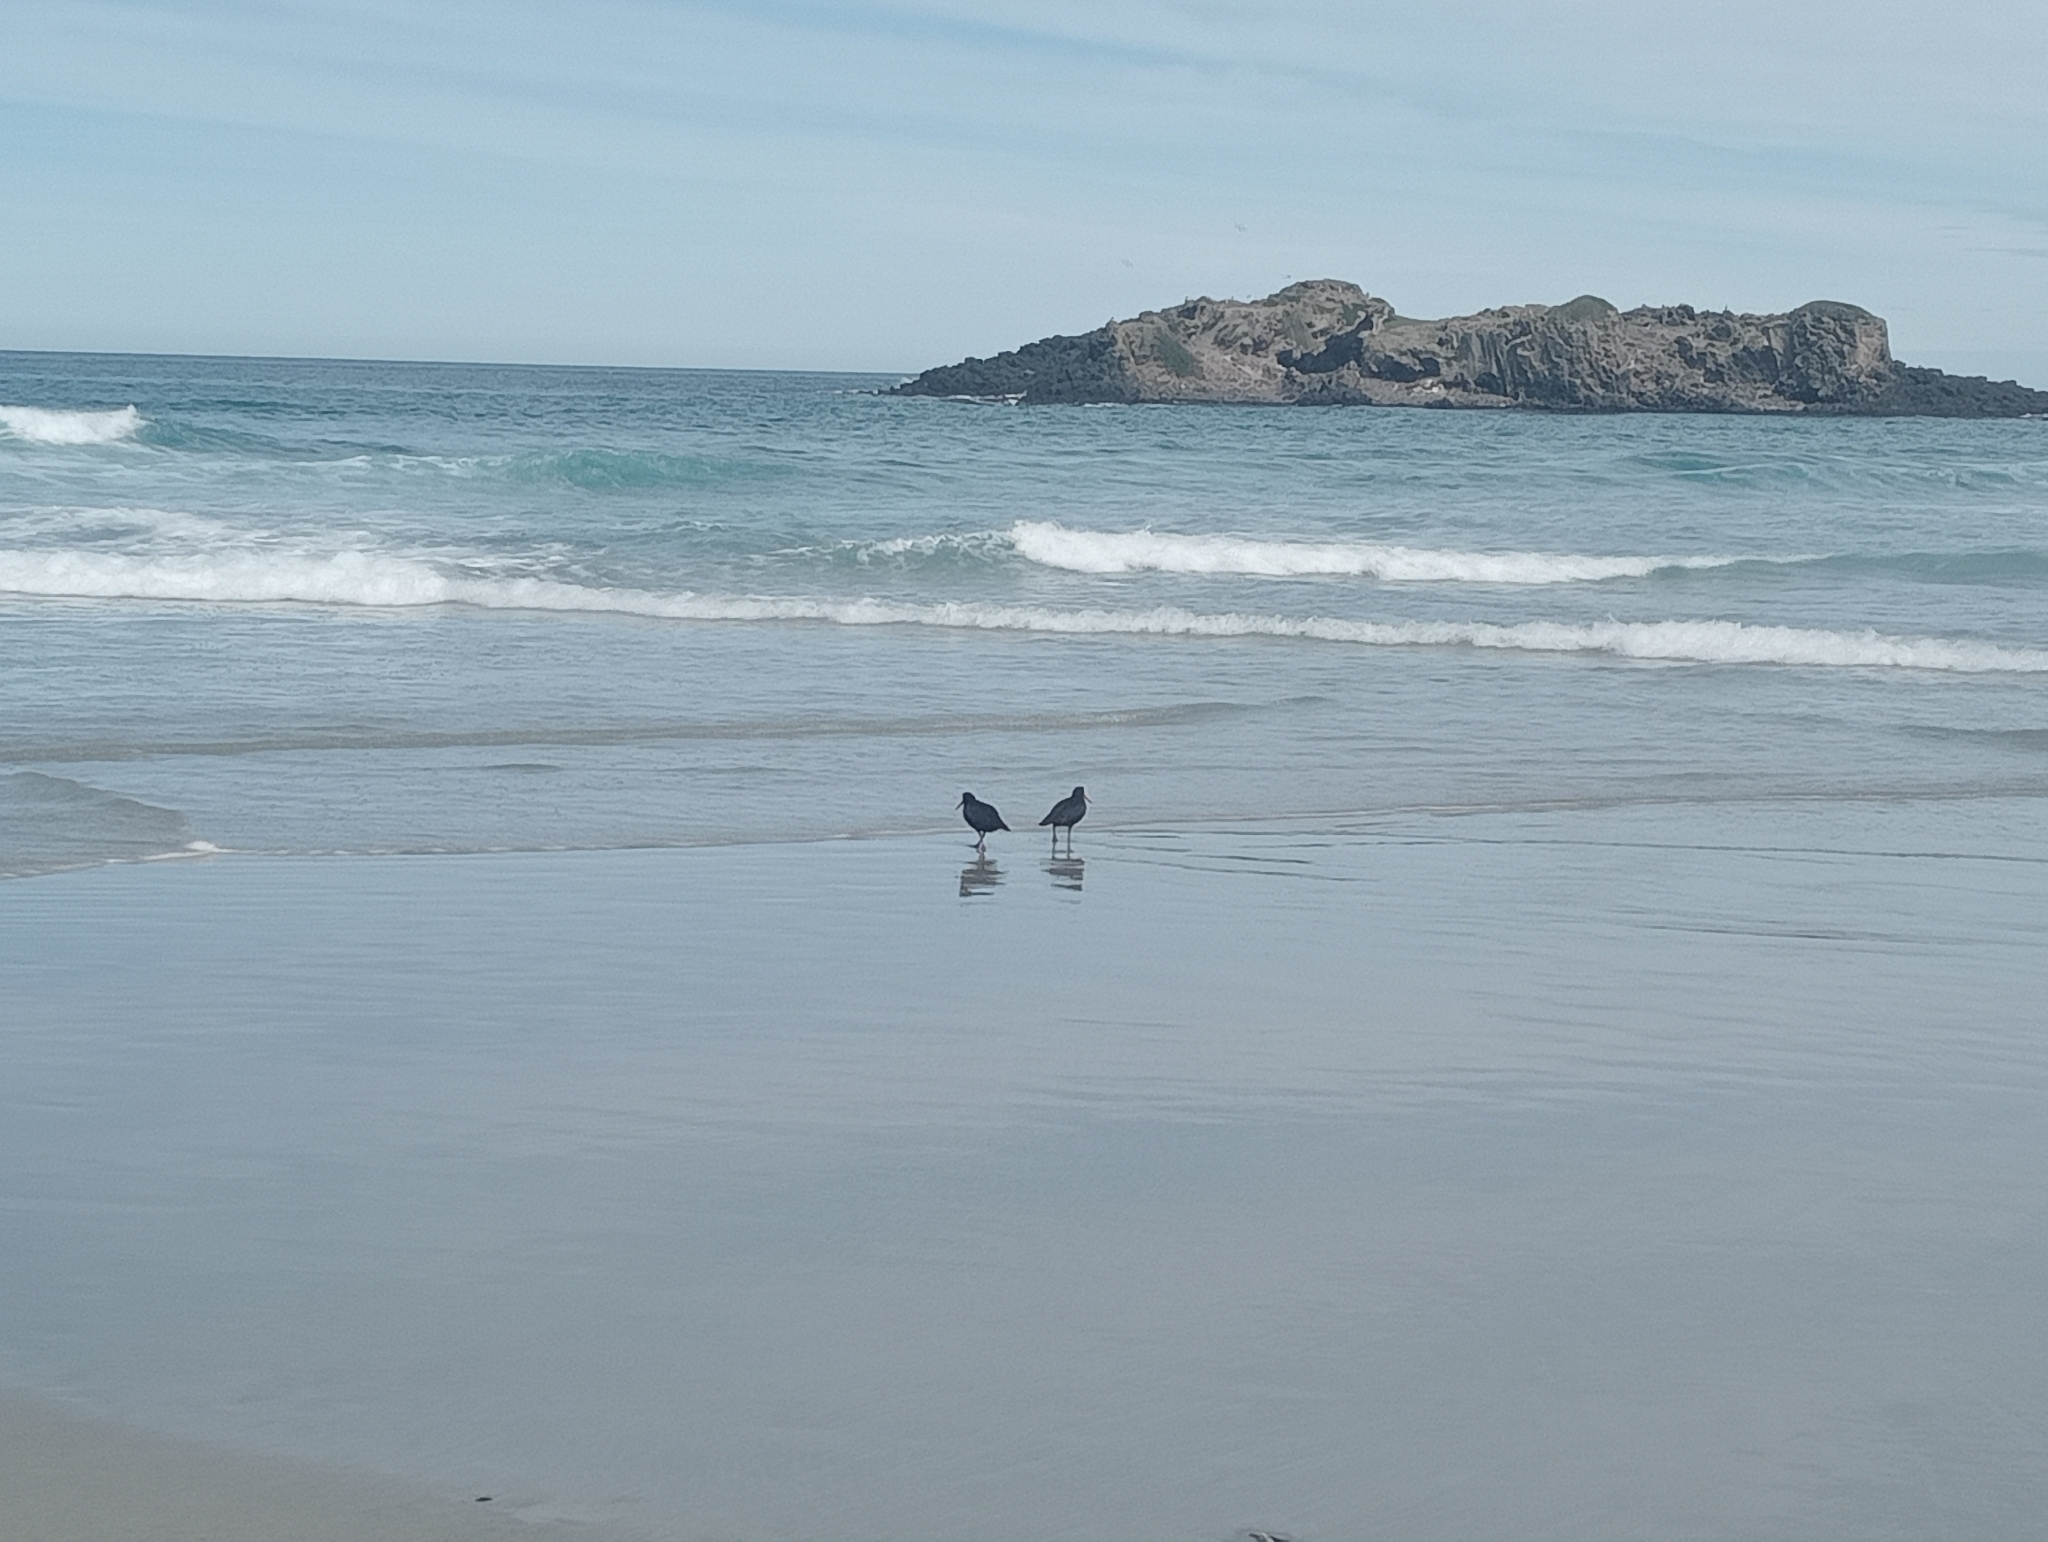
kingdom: Animalia
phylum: Chordata
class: Aves
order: Charadriiformes
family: Haematopodidae
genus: Haematopus
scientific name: Haematopus unicolor
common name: Variable oystercatcher
